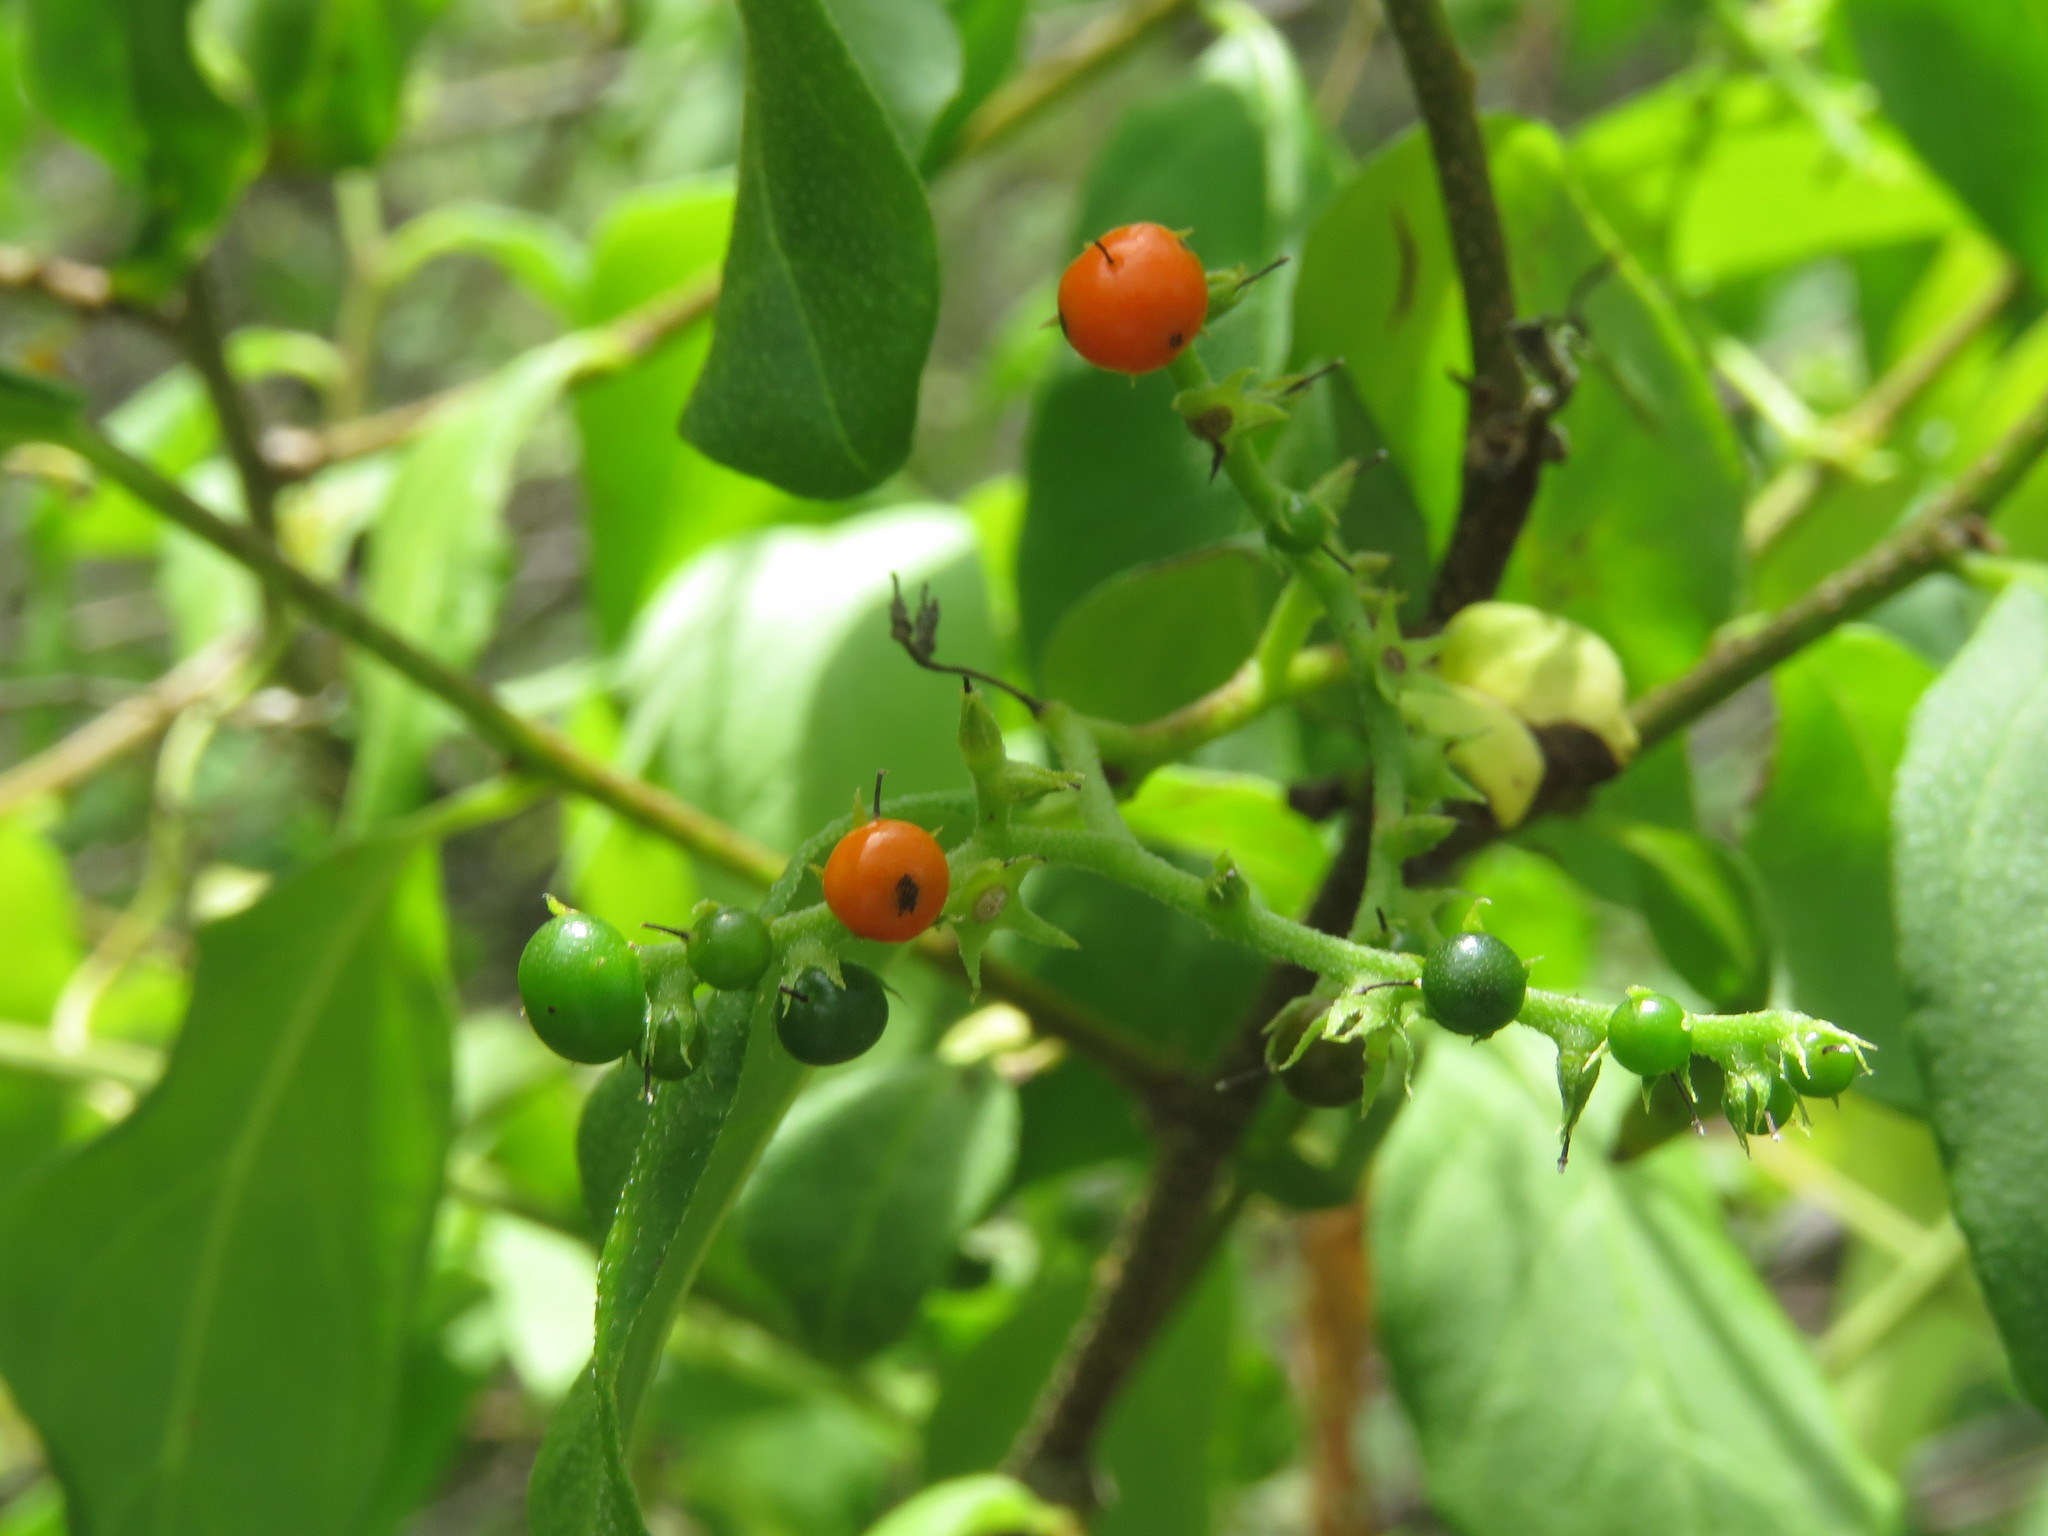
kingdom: Plantae
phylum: Tracheophyta
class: Magnoliopsida
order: Boraginales
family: Heliotropiaceae
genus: Myriopus
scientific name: Myriopus psilostachya
